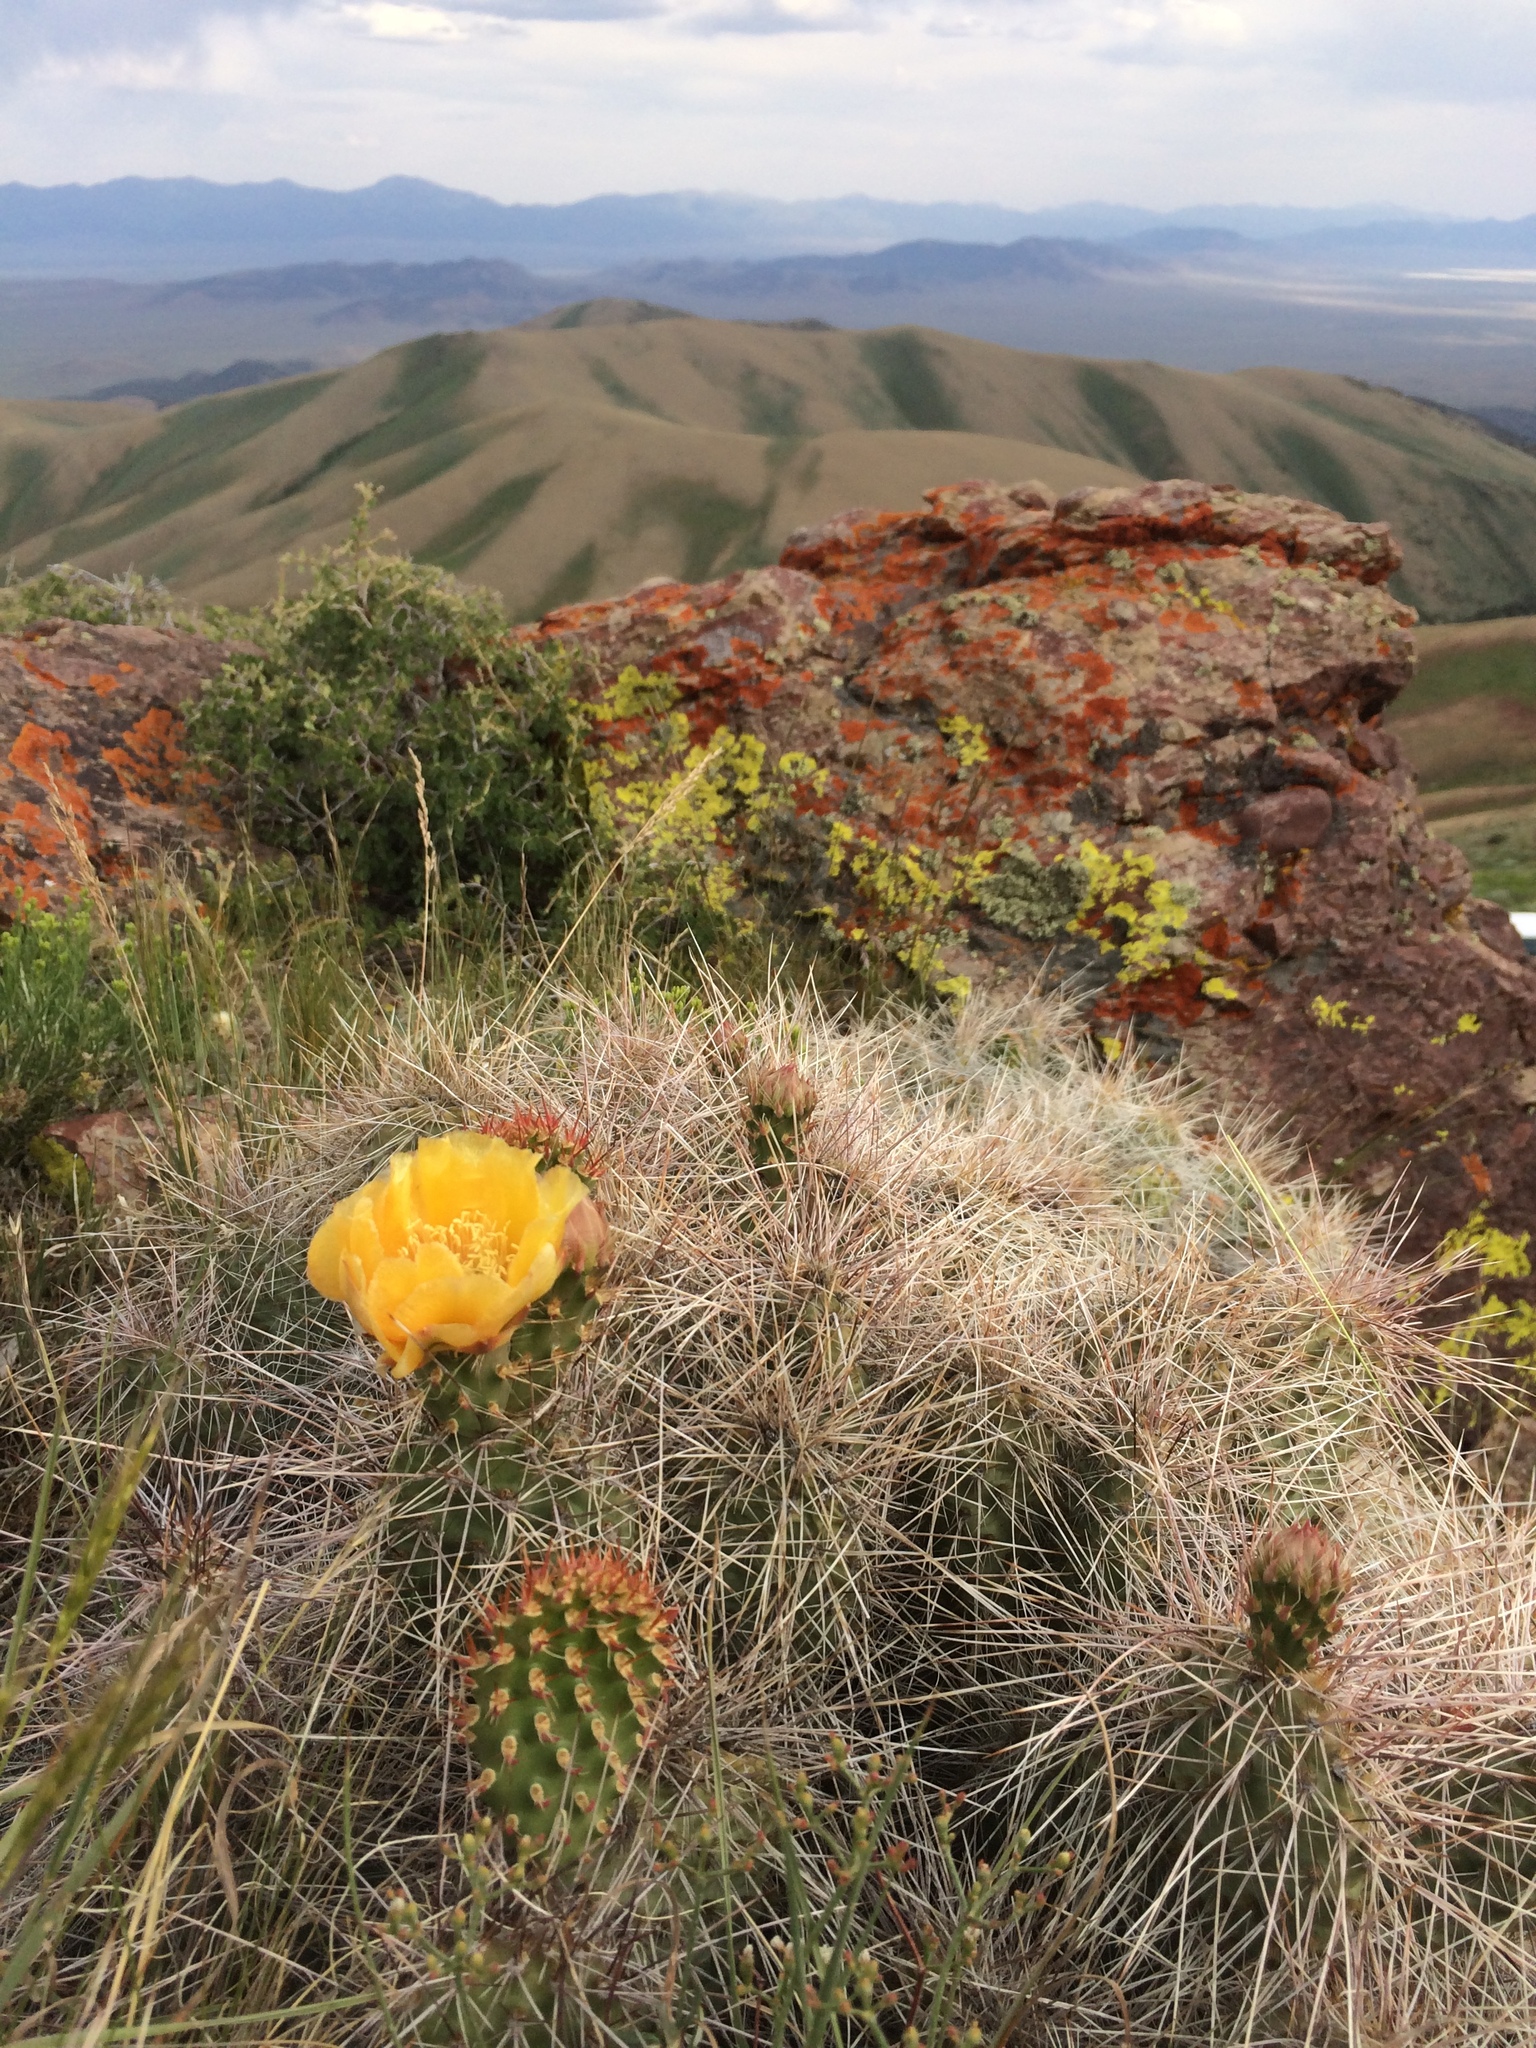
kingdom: Plantae
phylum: Tracheophyta
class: Magnoliopsida
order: Caryophyllales
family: Cactaceae
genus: Opuntia
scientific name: Opuntia polyacantha
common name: Plains prickly-pear
